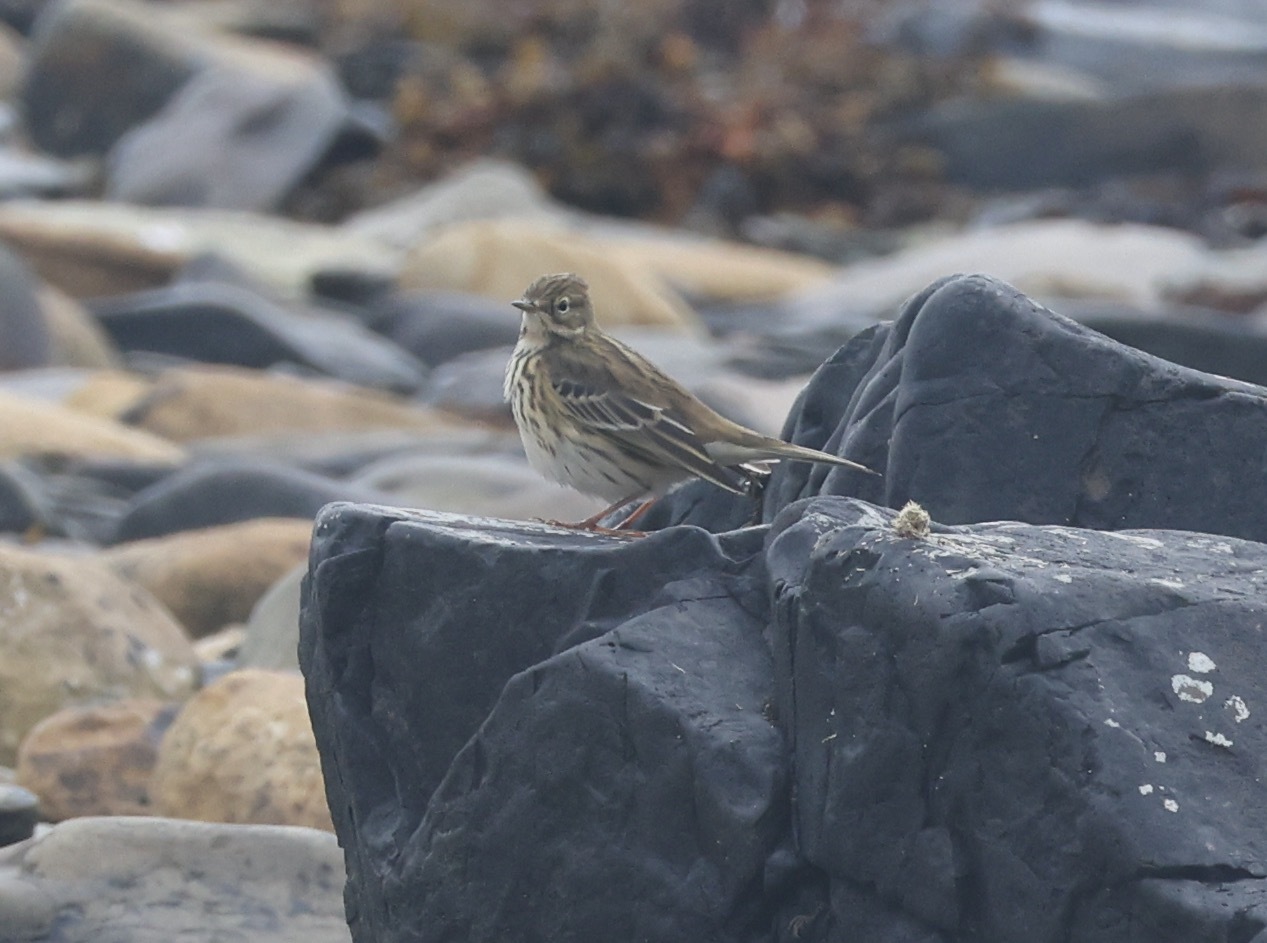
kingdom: Animalia
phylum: Chordata
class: Aves
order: Passeriformes
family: Motacillidae
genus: Anthus
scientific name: Anthus pratensis
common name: Meadow pipit
